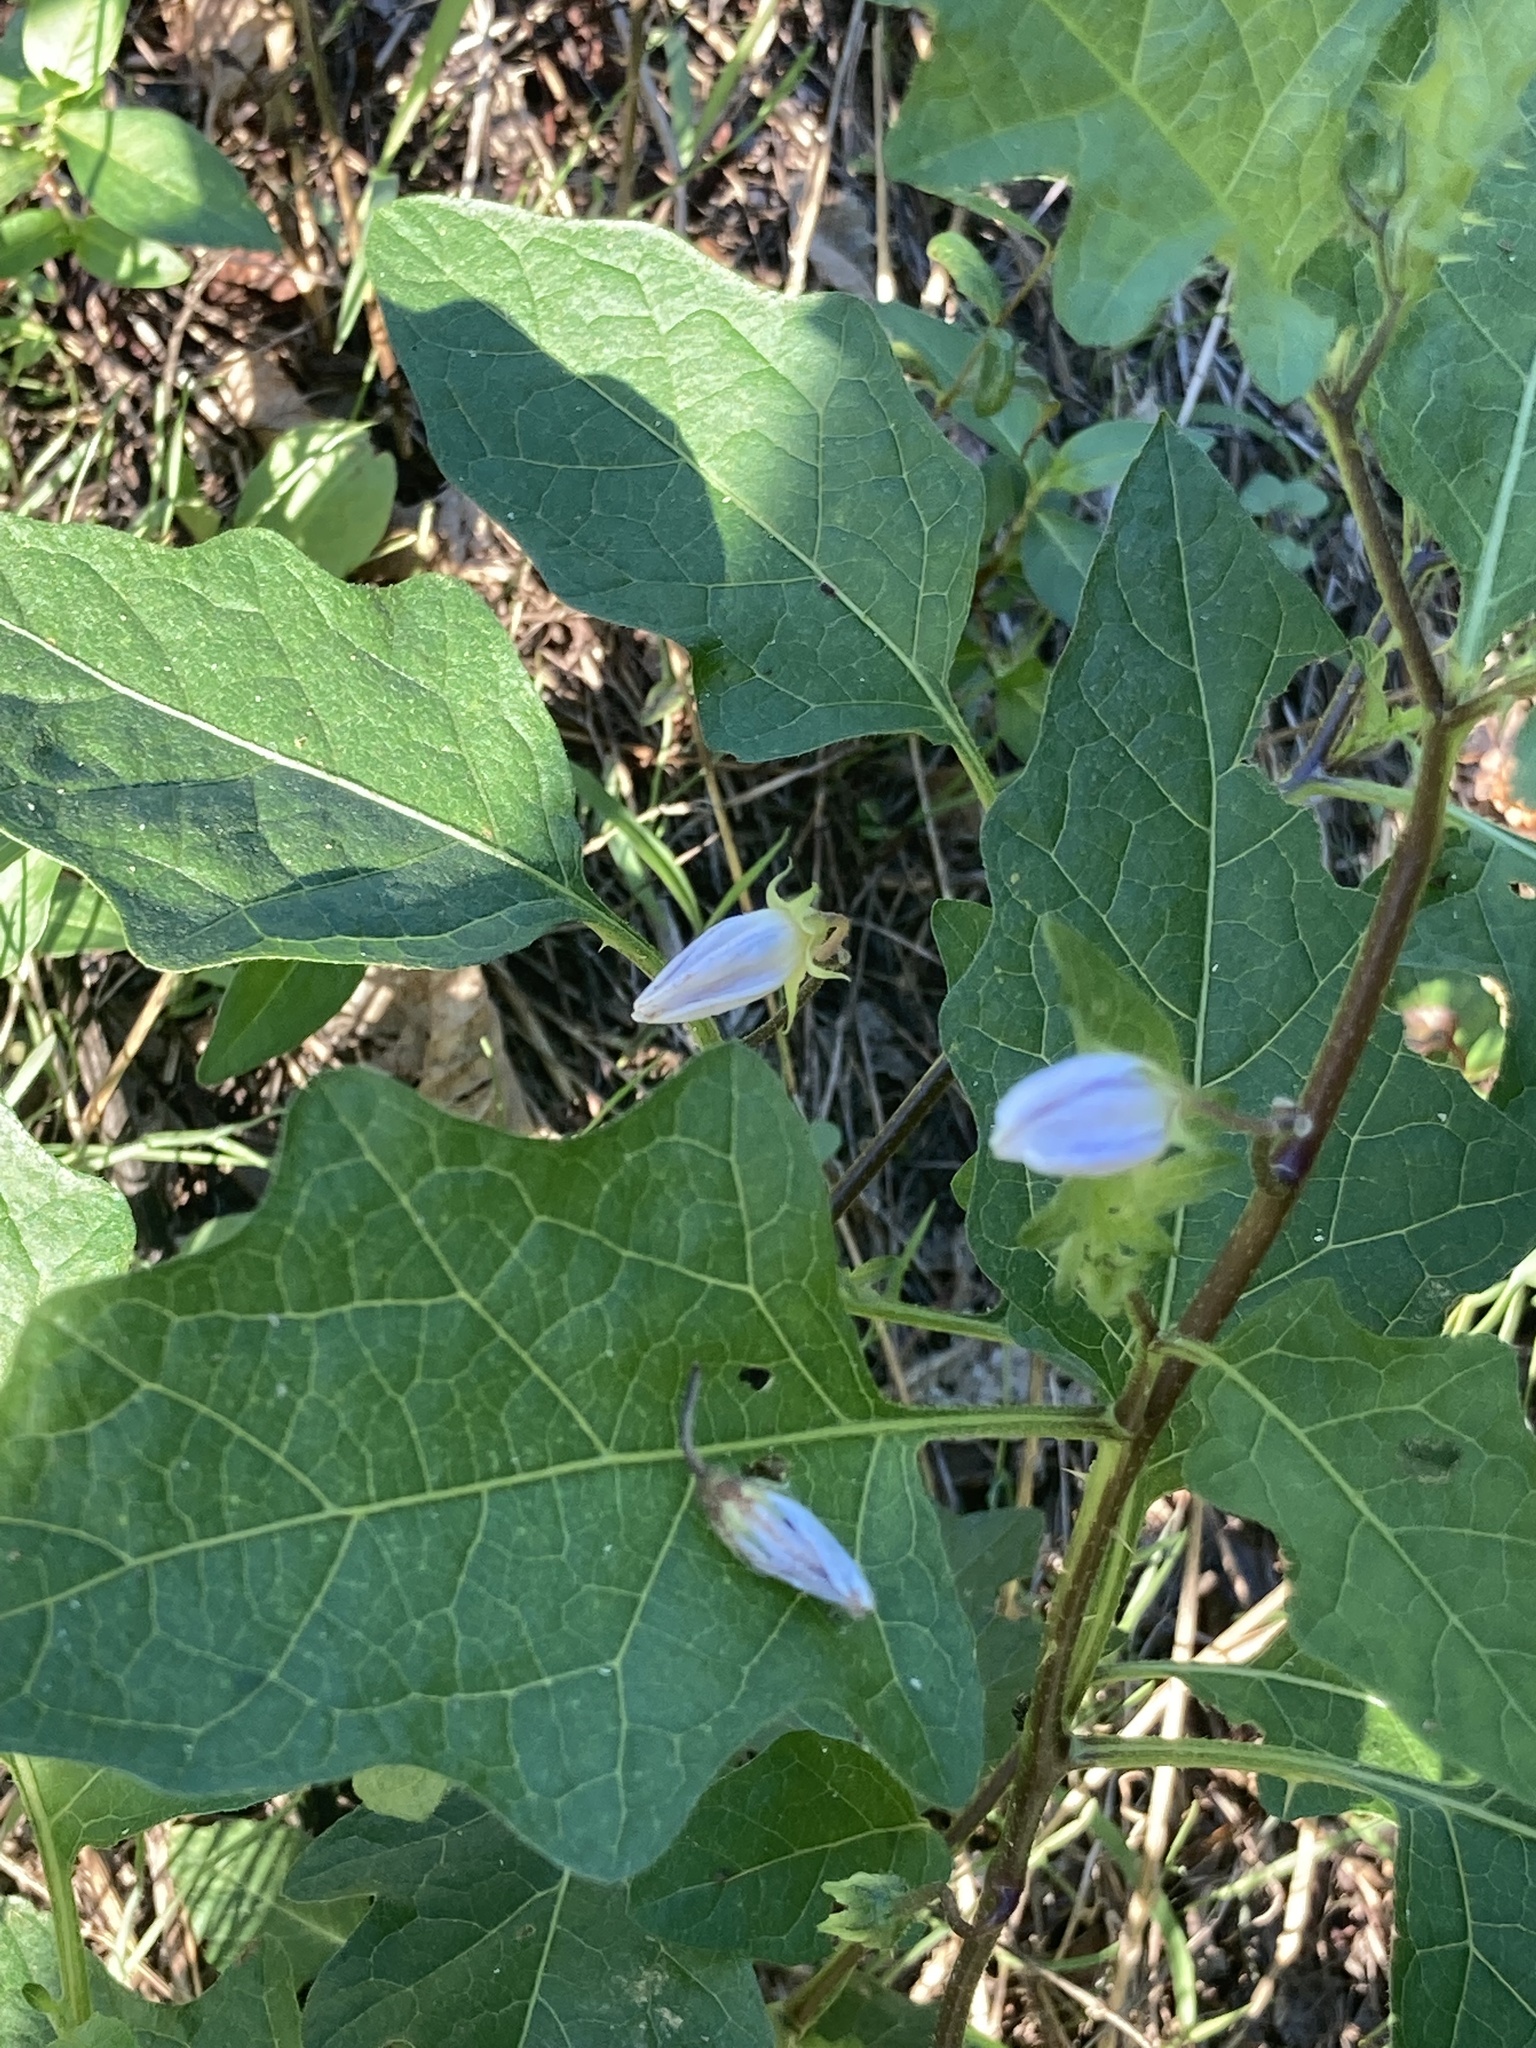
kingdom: Plantae
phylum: Tracheophyta
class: Magnoliopsida
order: Solanales
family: Solanaceae
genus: Solanum
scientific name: Solanum carolinense
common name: Horse-nettle
